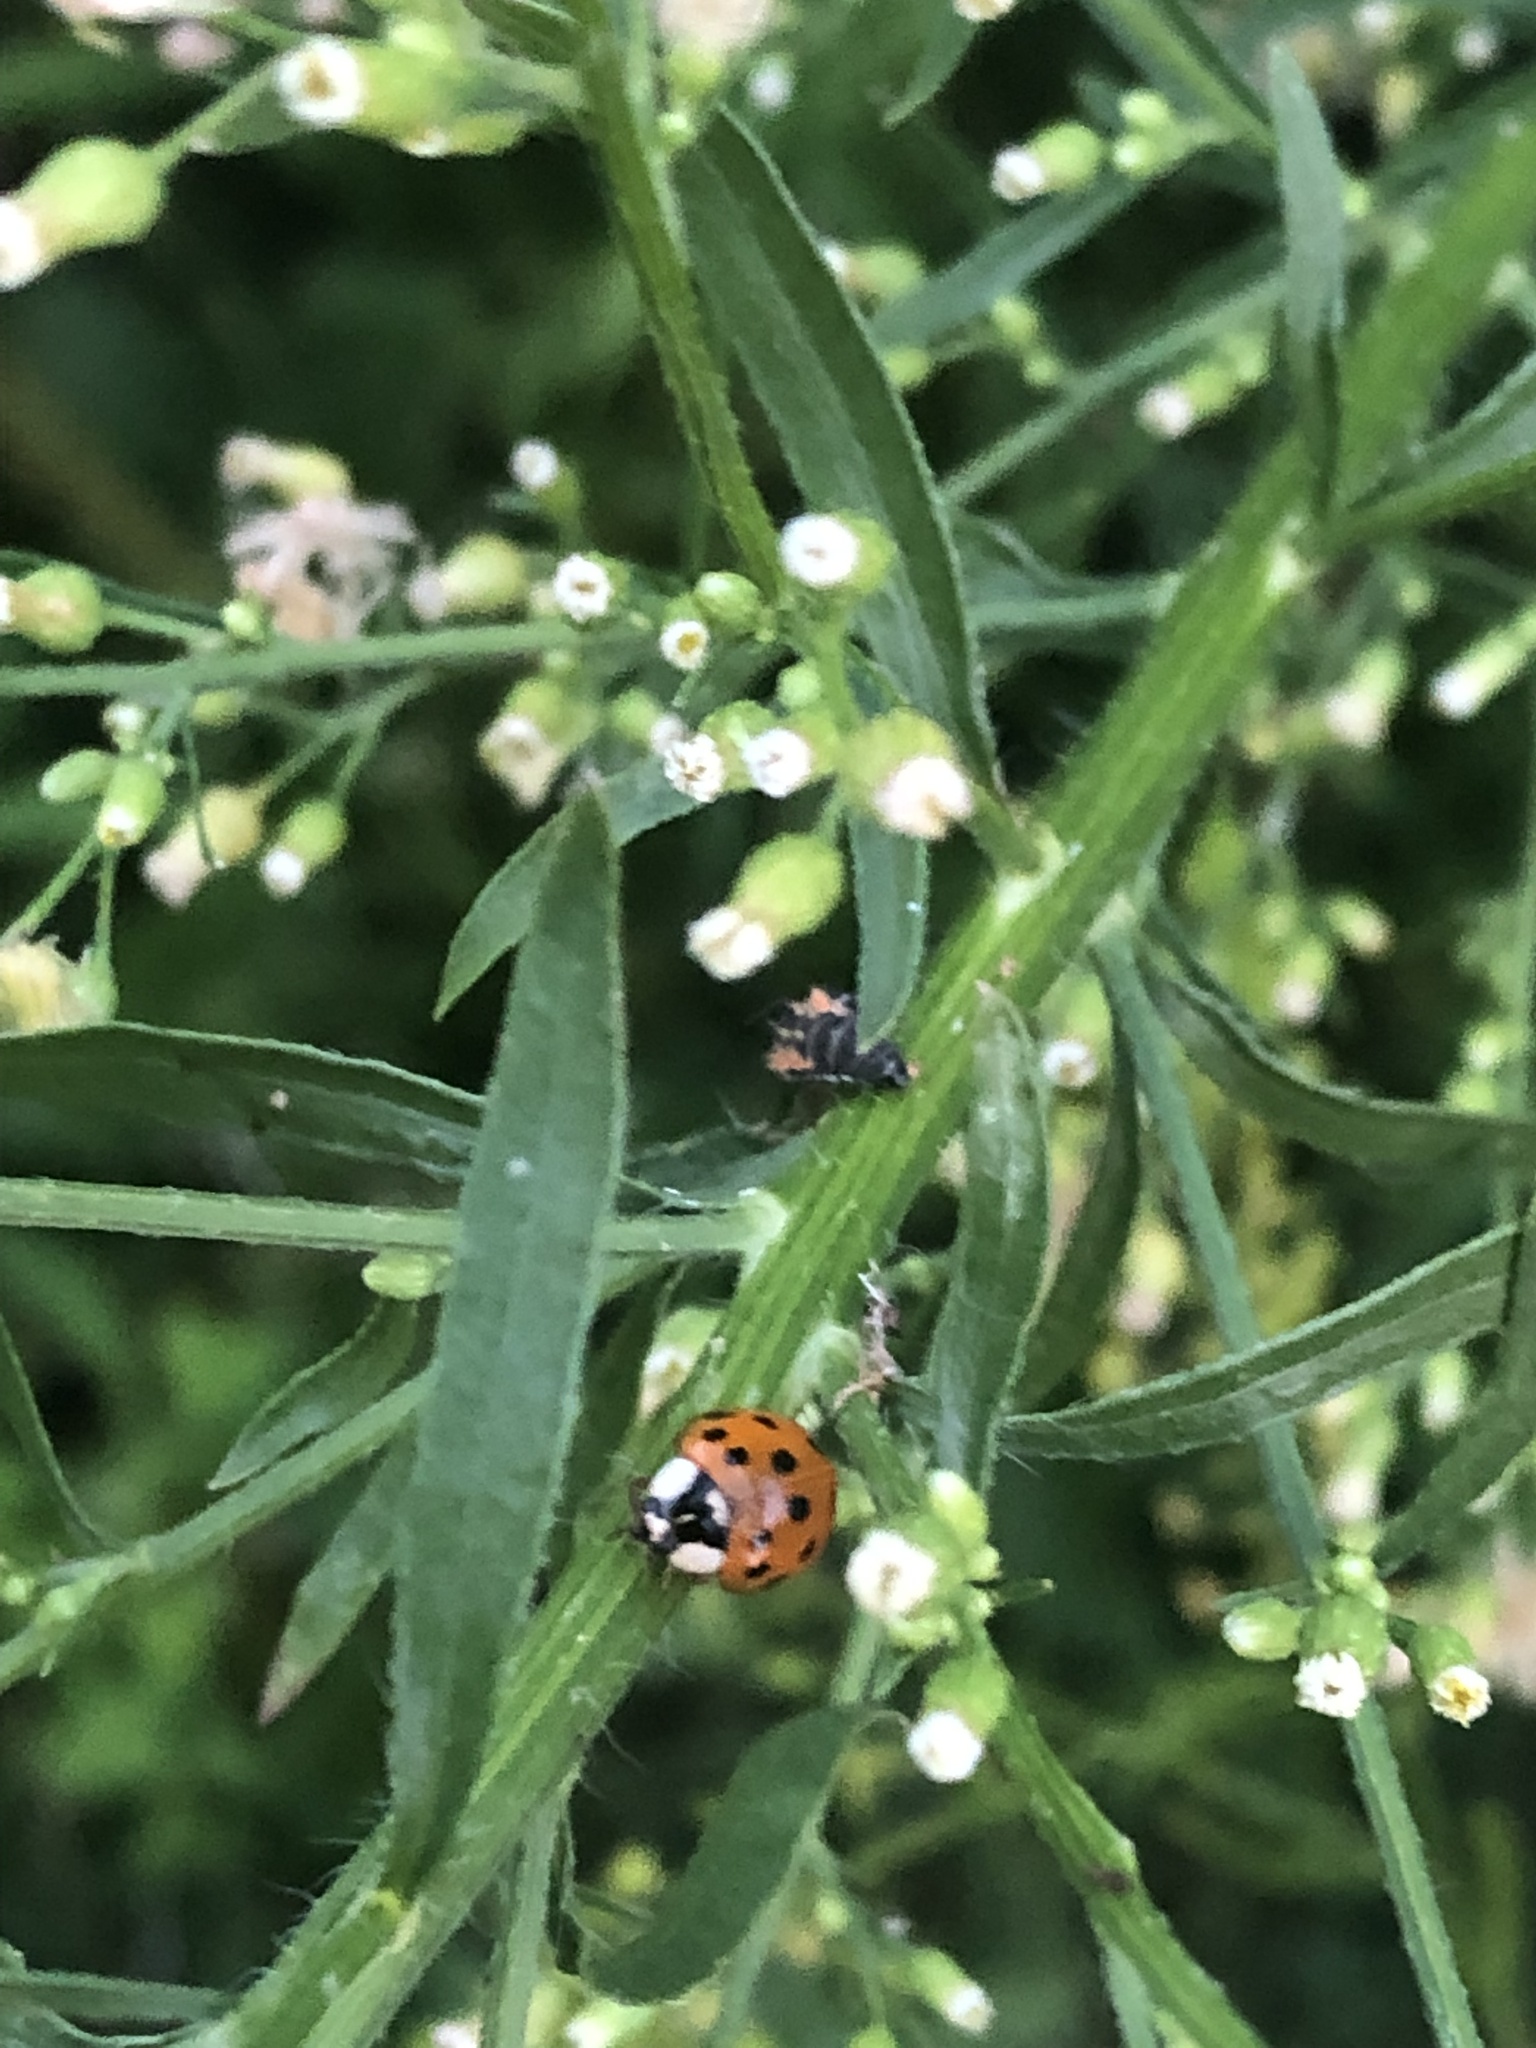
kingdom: Animalia
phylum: Arthropoda
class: Insecta
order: Coleoptera
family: Coccinellidae
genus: Harmonia
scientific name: Harmonia axyridis
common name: Harlequin ladybird
